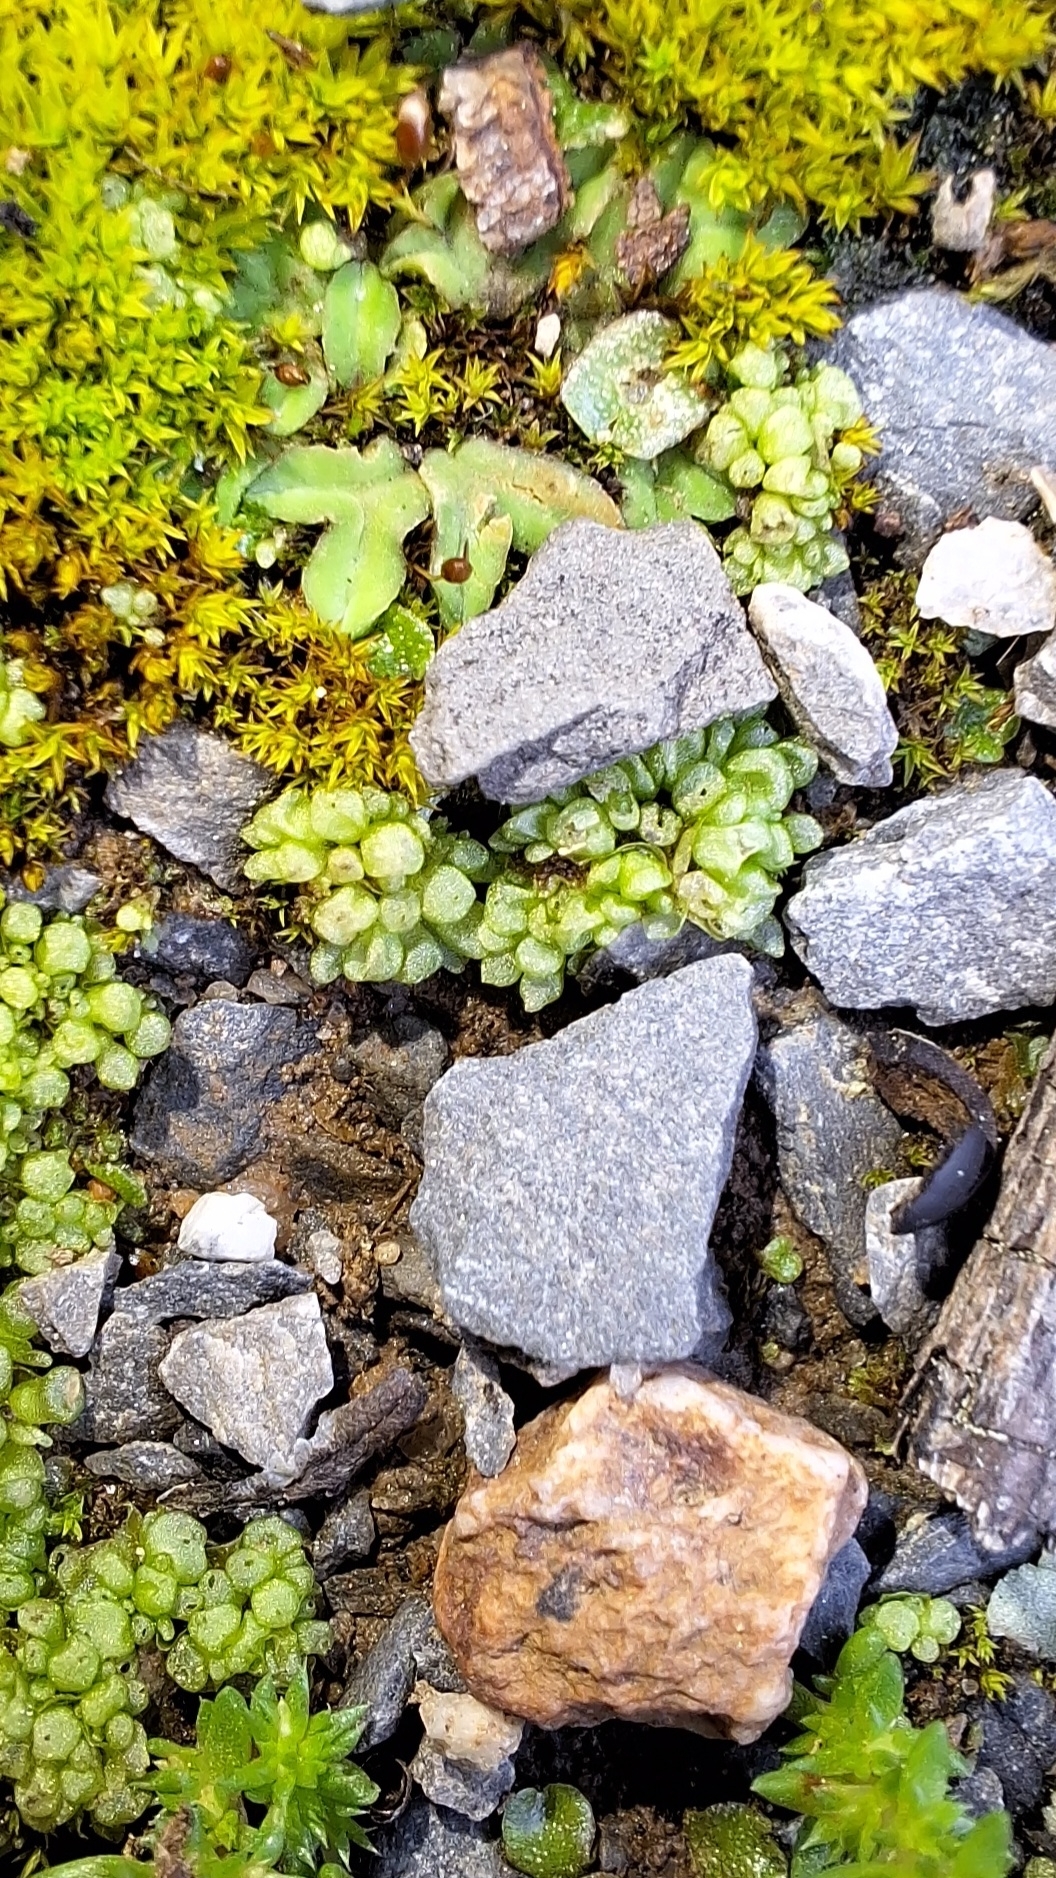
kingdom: Plantae
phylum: Marchantiophyta
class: Marchantiopsida
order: Sphaerocarpales
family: Sphaerocarpaceae
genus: Sphaerocarpos
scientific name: Sphaerocarpos texanus
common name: Texas balloonwort
